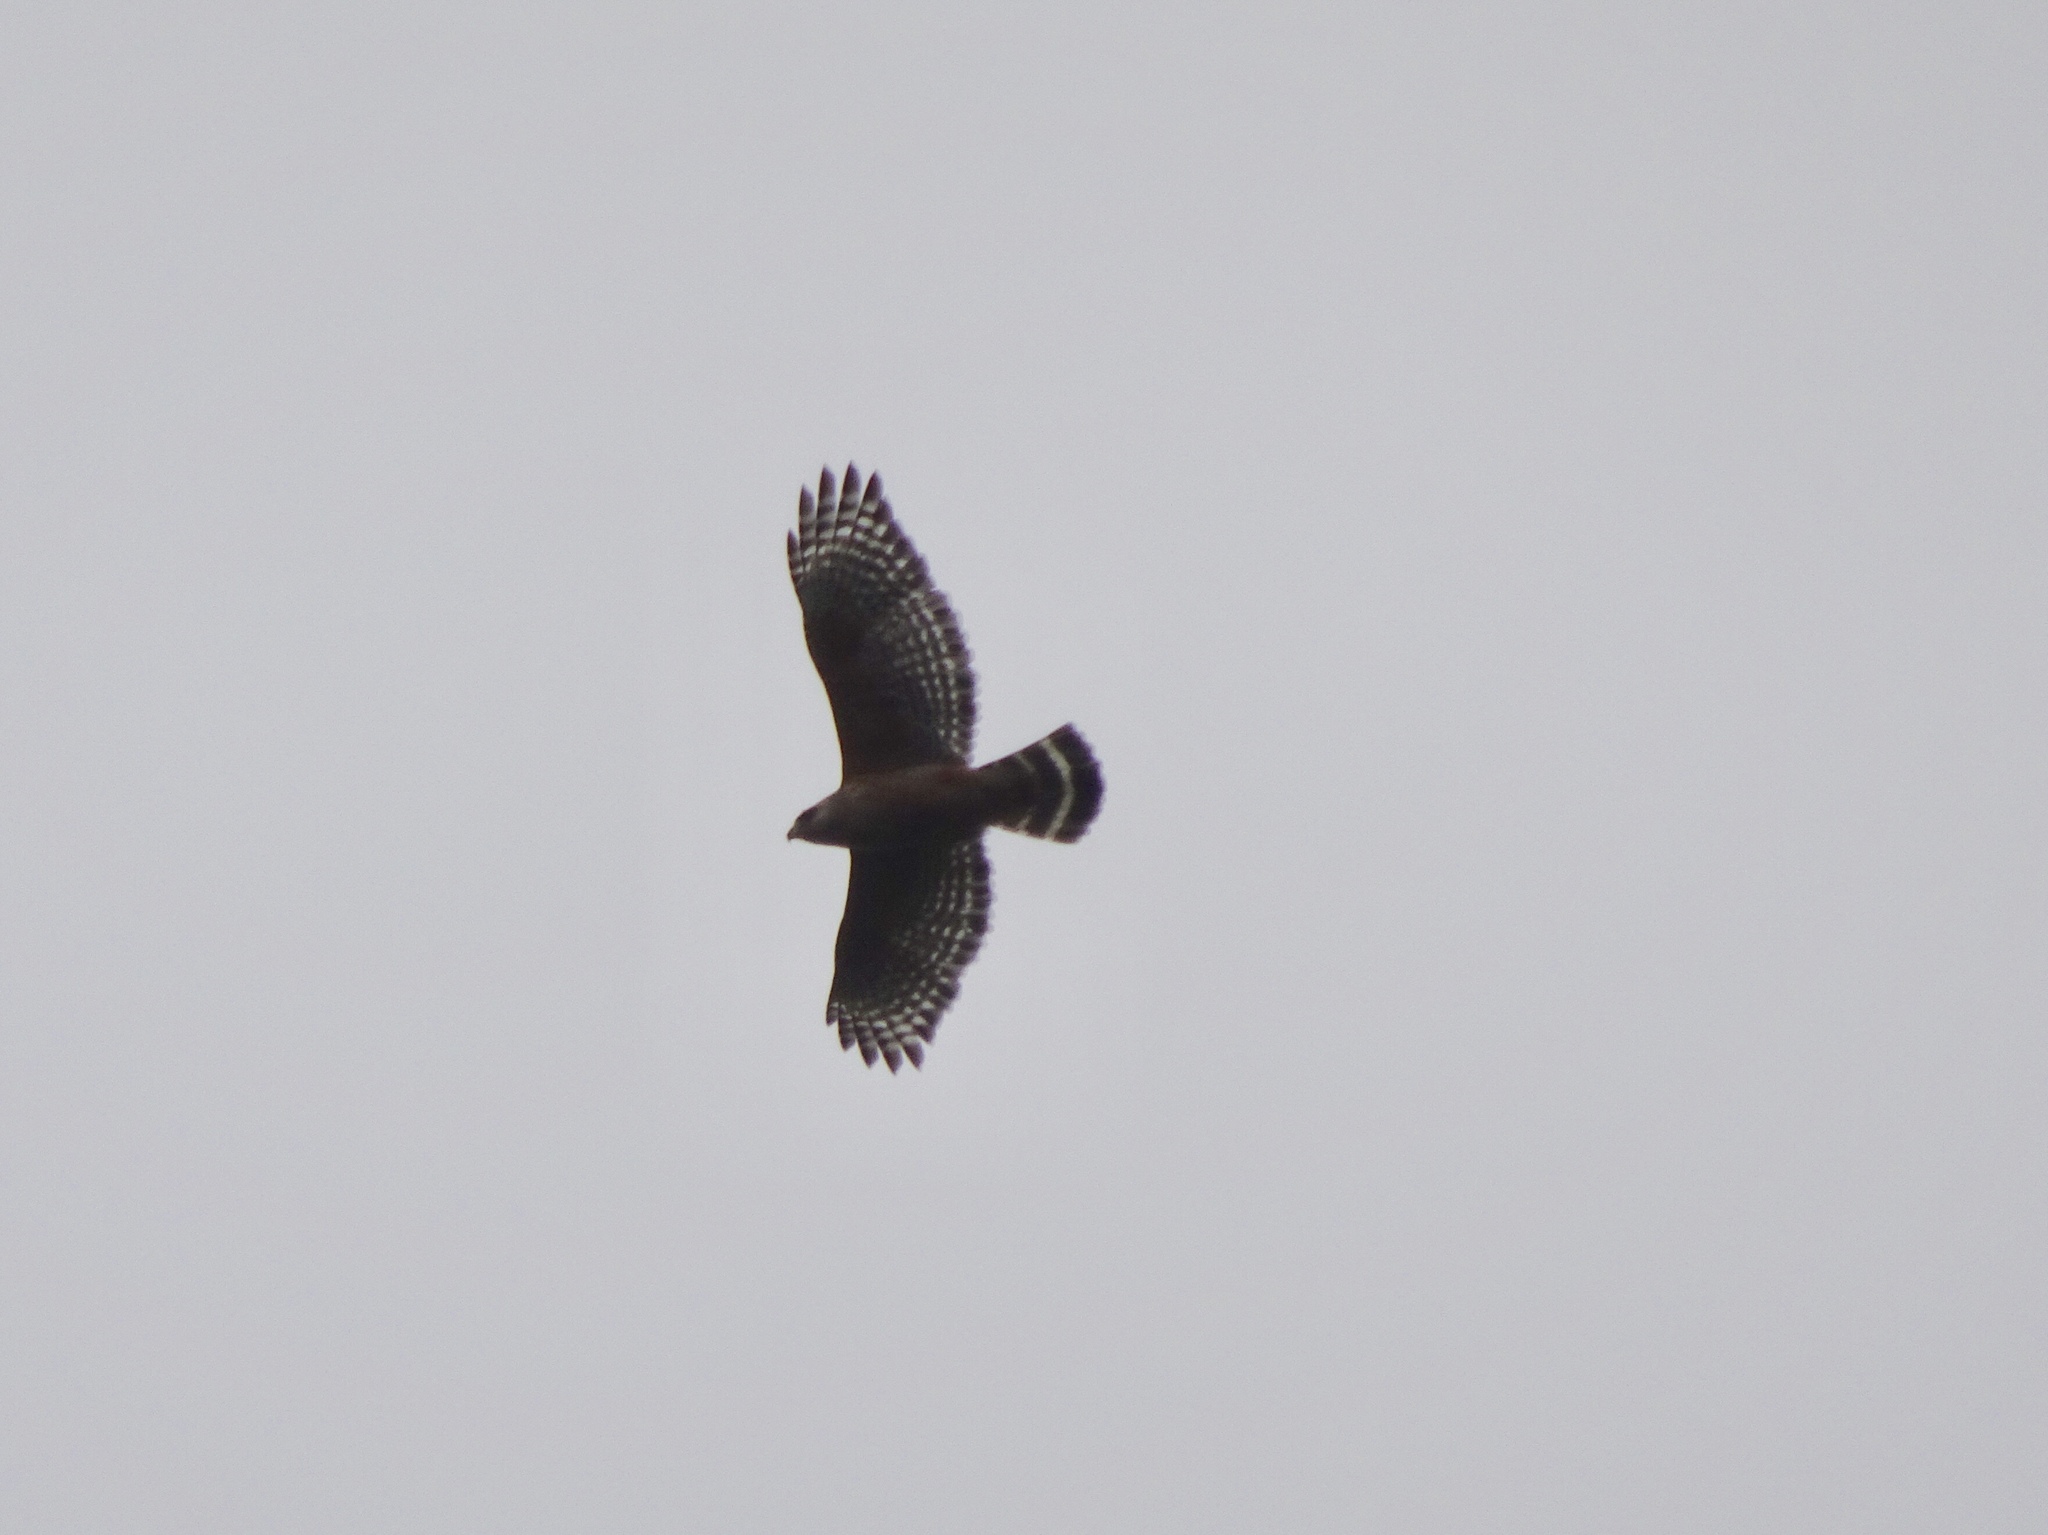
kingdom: Animalia
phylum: Chordata
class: Aves
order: Accipitriformes
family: Accipitridae
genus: Buteo
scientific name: Buteo lineatus
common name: Red-shouldered hawk
